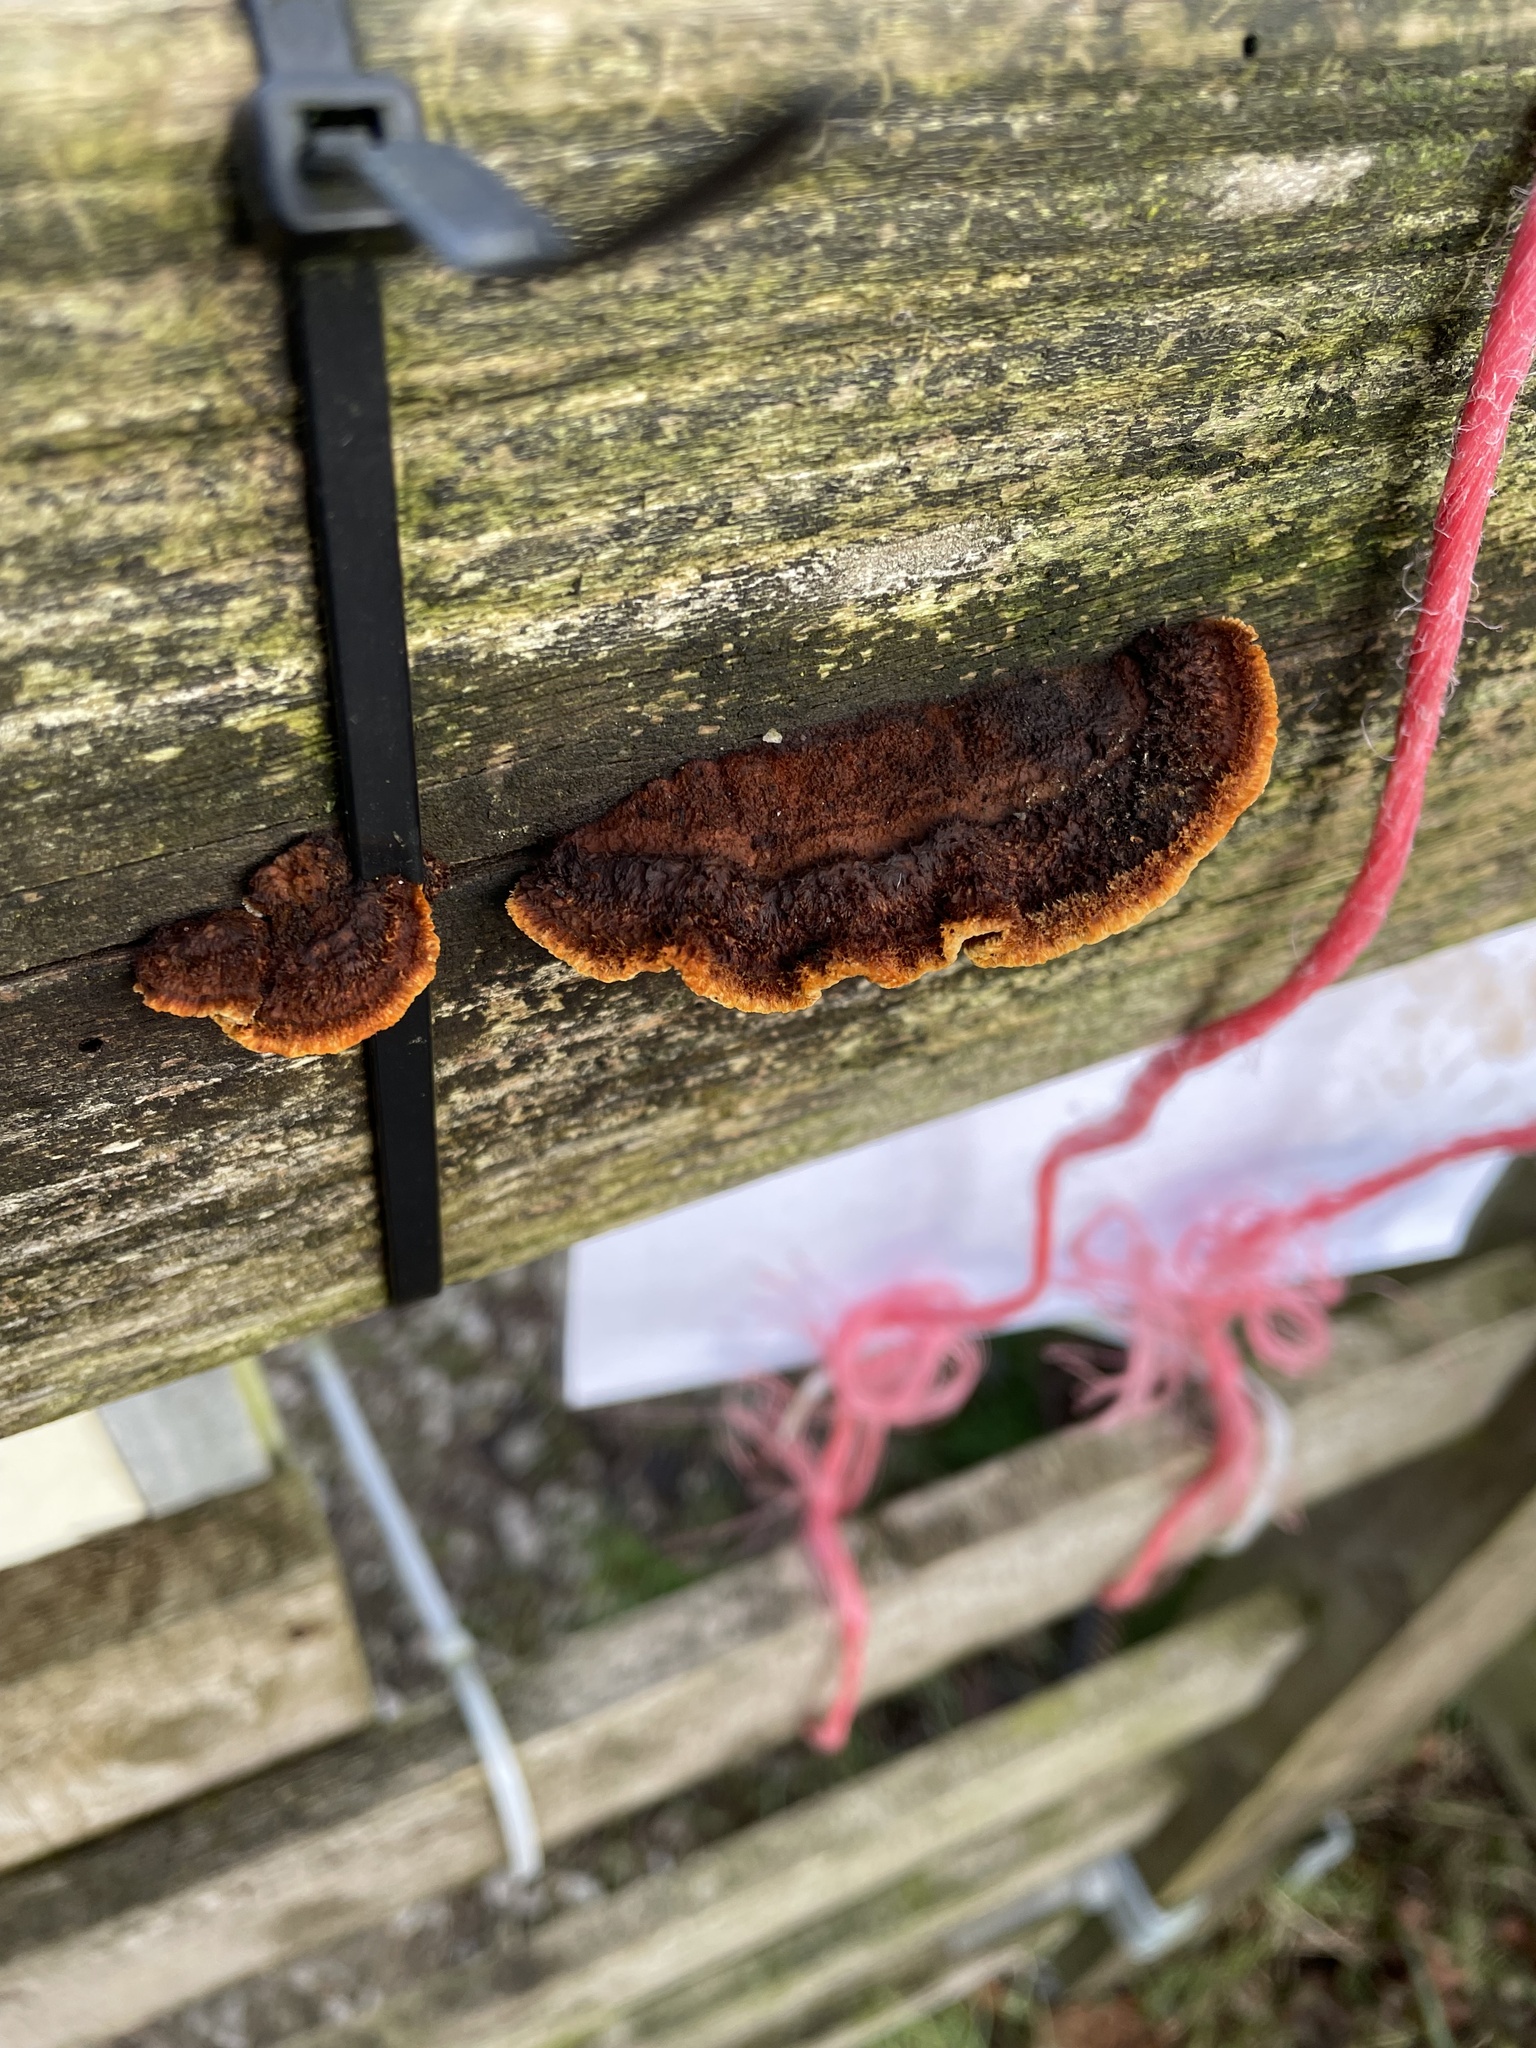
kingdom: Fungi
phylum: Basidiomycota
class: Agaricomycetes
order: Gloeophyllales
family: Gloeophyllaceae
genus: Gloeophyllum
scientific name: Gloeophyllum sepiarium
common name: Conifer mazegill
